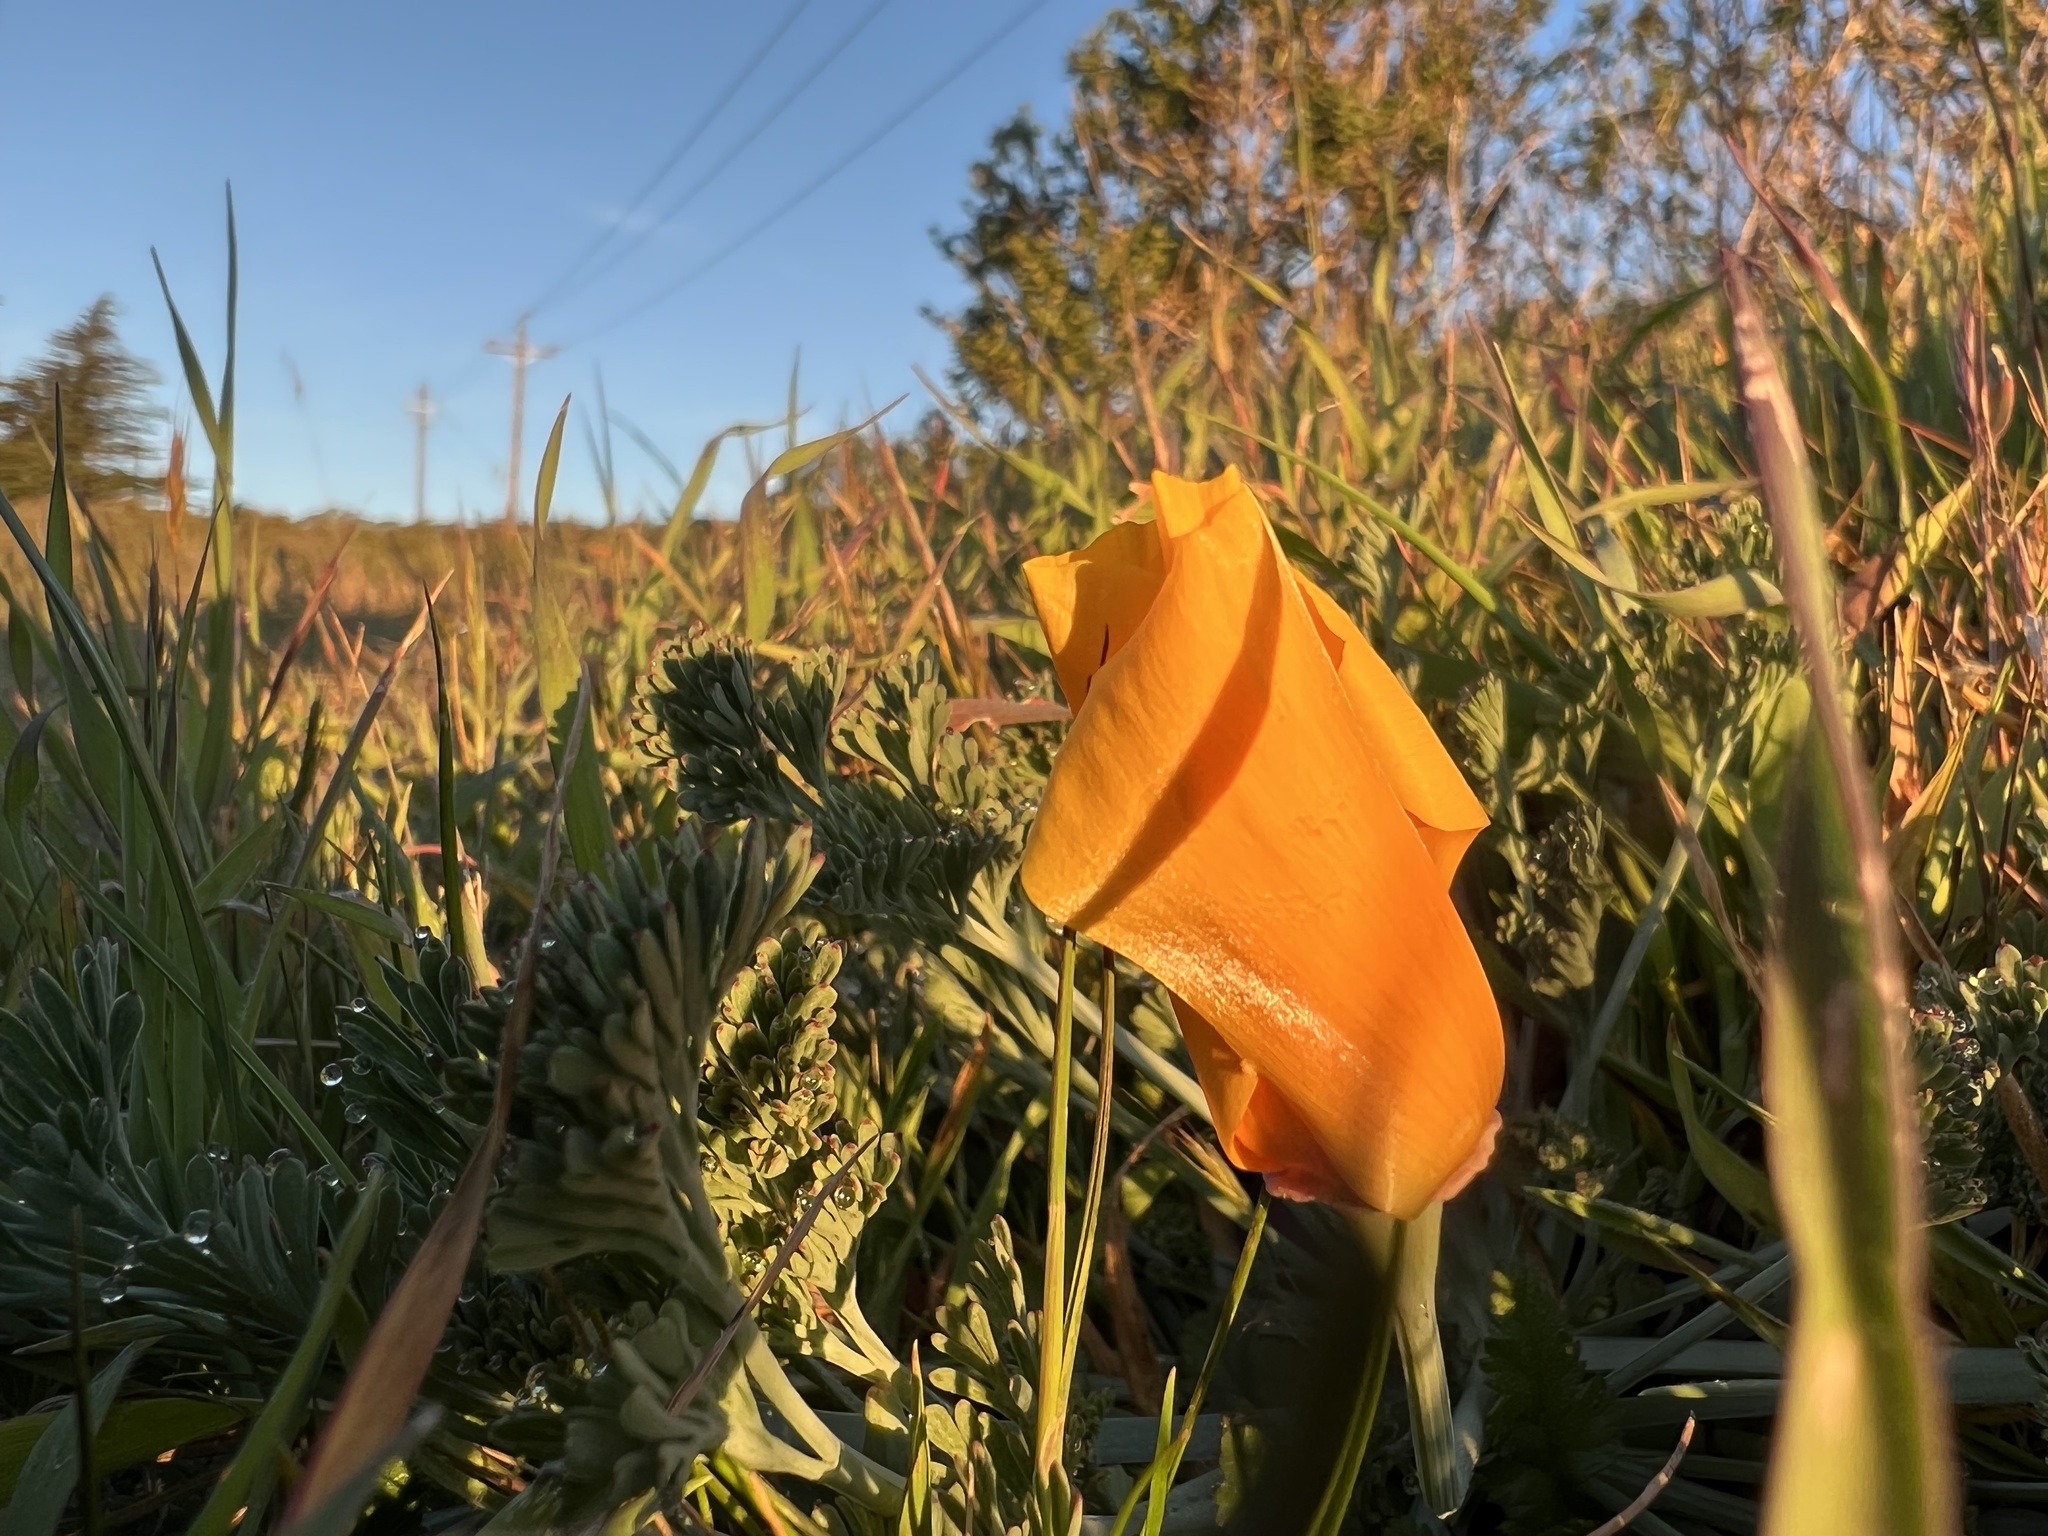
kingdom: Plantae
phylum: Tracheophyta
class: Magnoliopsida
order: Ranunculales
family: Papaveraceae
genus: Eschscholzia
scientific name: Eschscholzia californica
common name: California poppy
